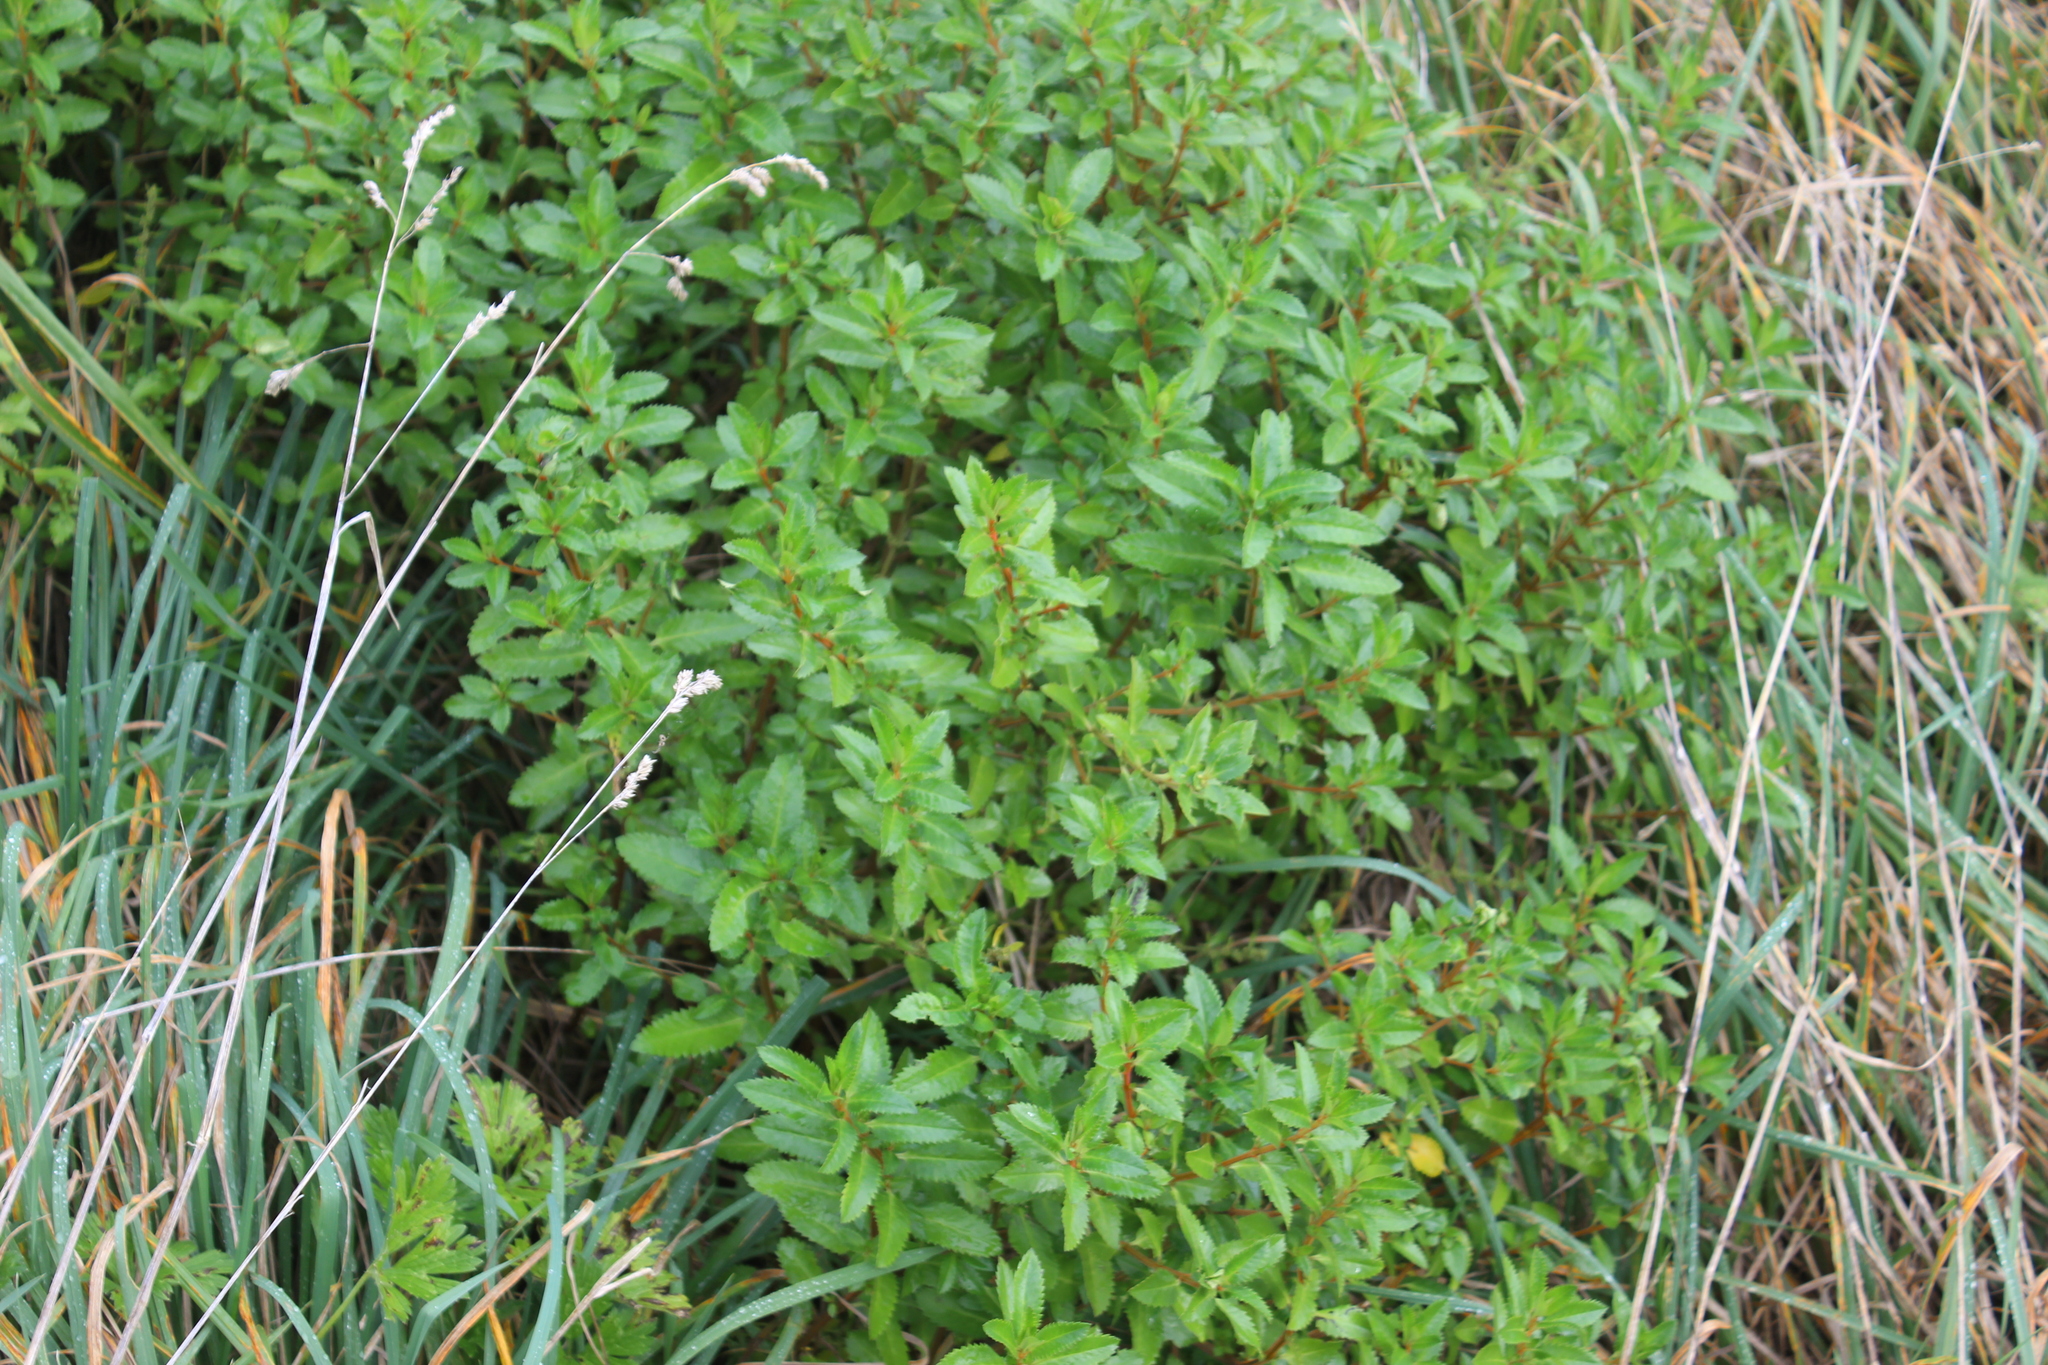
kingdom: Plantae
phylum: Tracheophyta
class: Magnoliopsida
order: Saxifragales
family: Haloragaceae
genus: Haloragis
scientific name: Haloragis erecta
